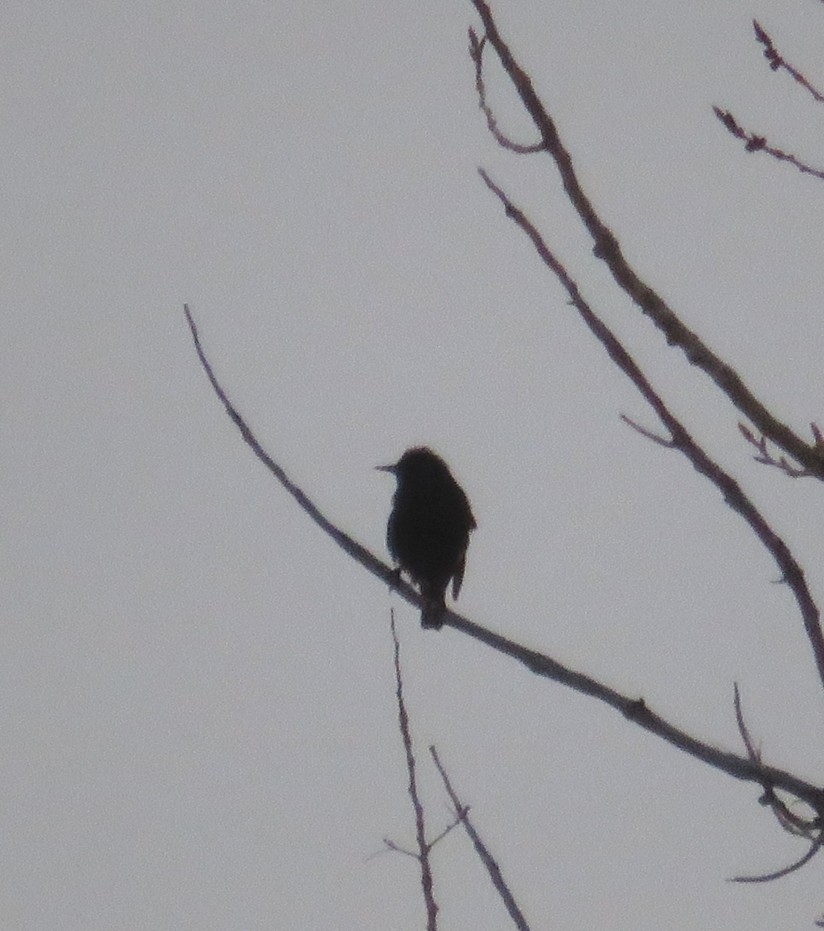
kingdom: Animalia
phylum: Chordata
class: Aves
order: Passeriformes
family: Sturnidae
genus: Sturnus
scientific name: Sturnus vulgaris
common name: Common starling
